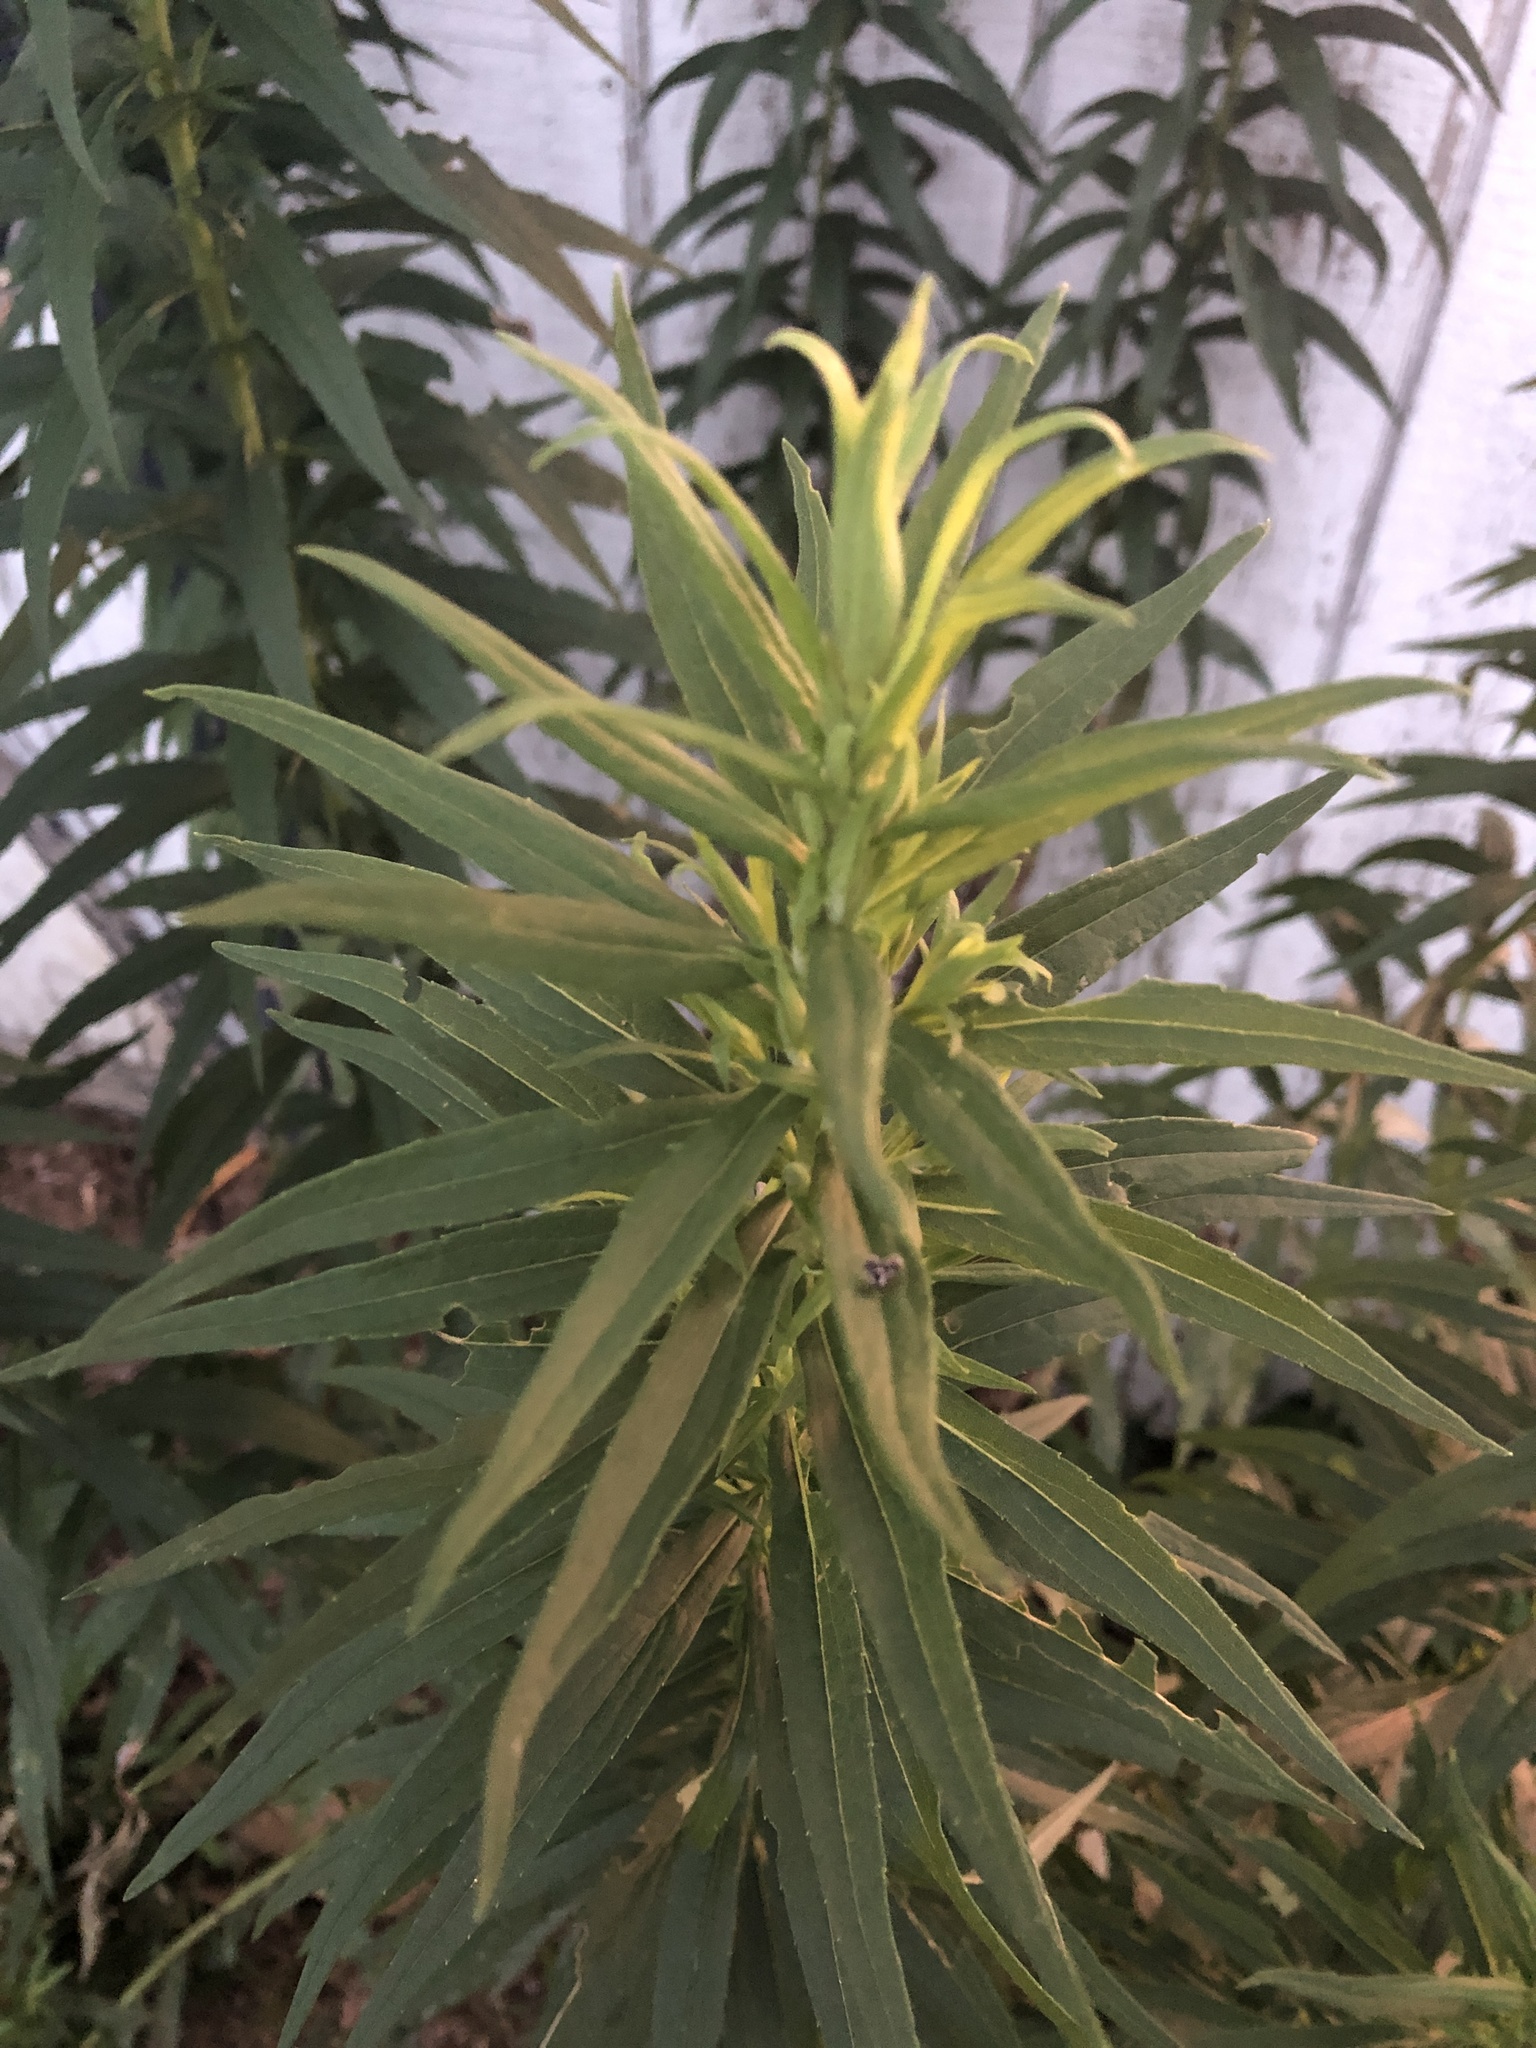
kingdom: Plantae
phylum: Tracheophyta
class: Magnoliopsida
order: Asterales
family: Asteraceae
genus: Solidago
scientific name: Solidago altissima
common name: Late goldenrod
